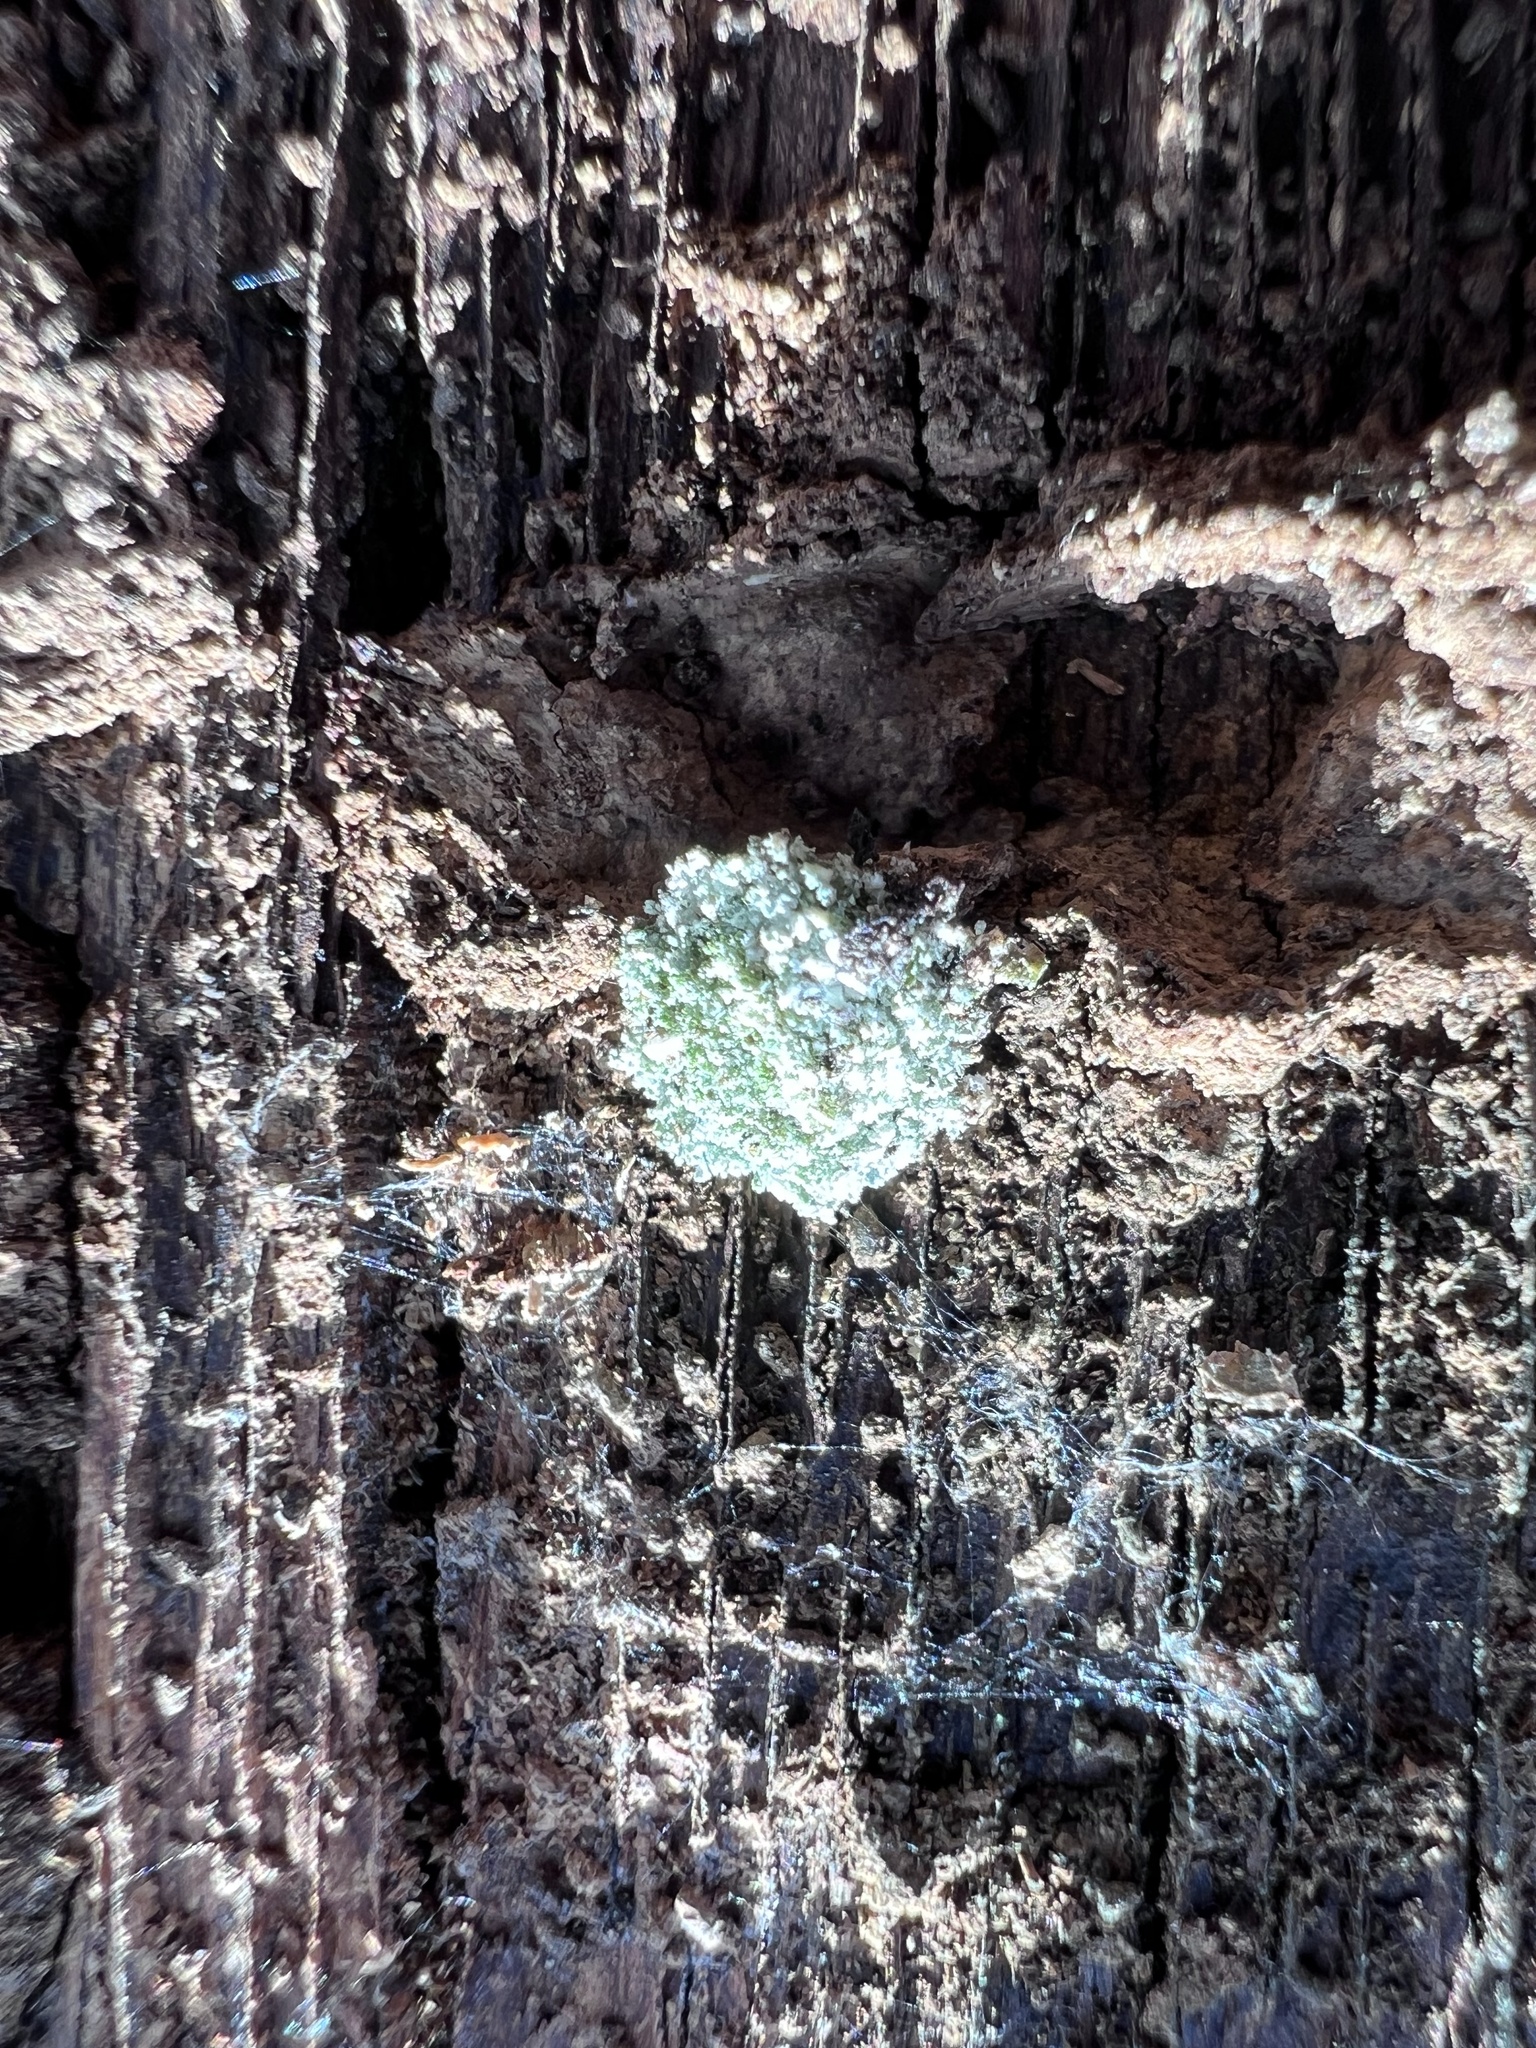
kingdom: Animalia
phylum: Arthropoda
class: Insecta
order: Neuroptera
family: Chrysopidae
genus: Leucochrysa
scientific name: Leucochrysa pavida
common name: Lichen-carrying green lacewing
